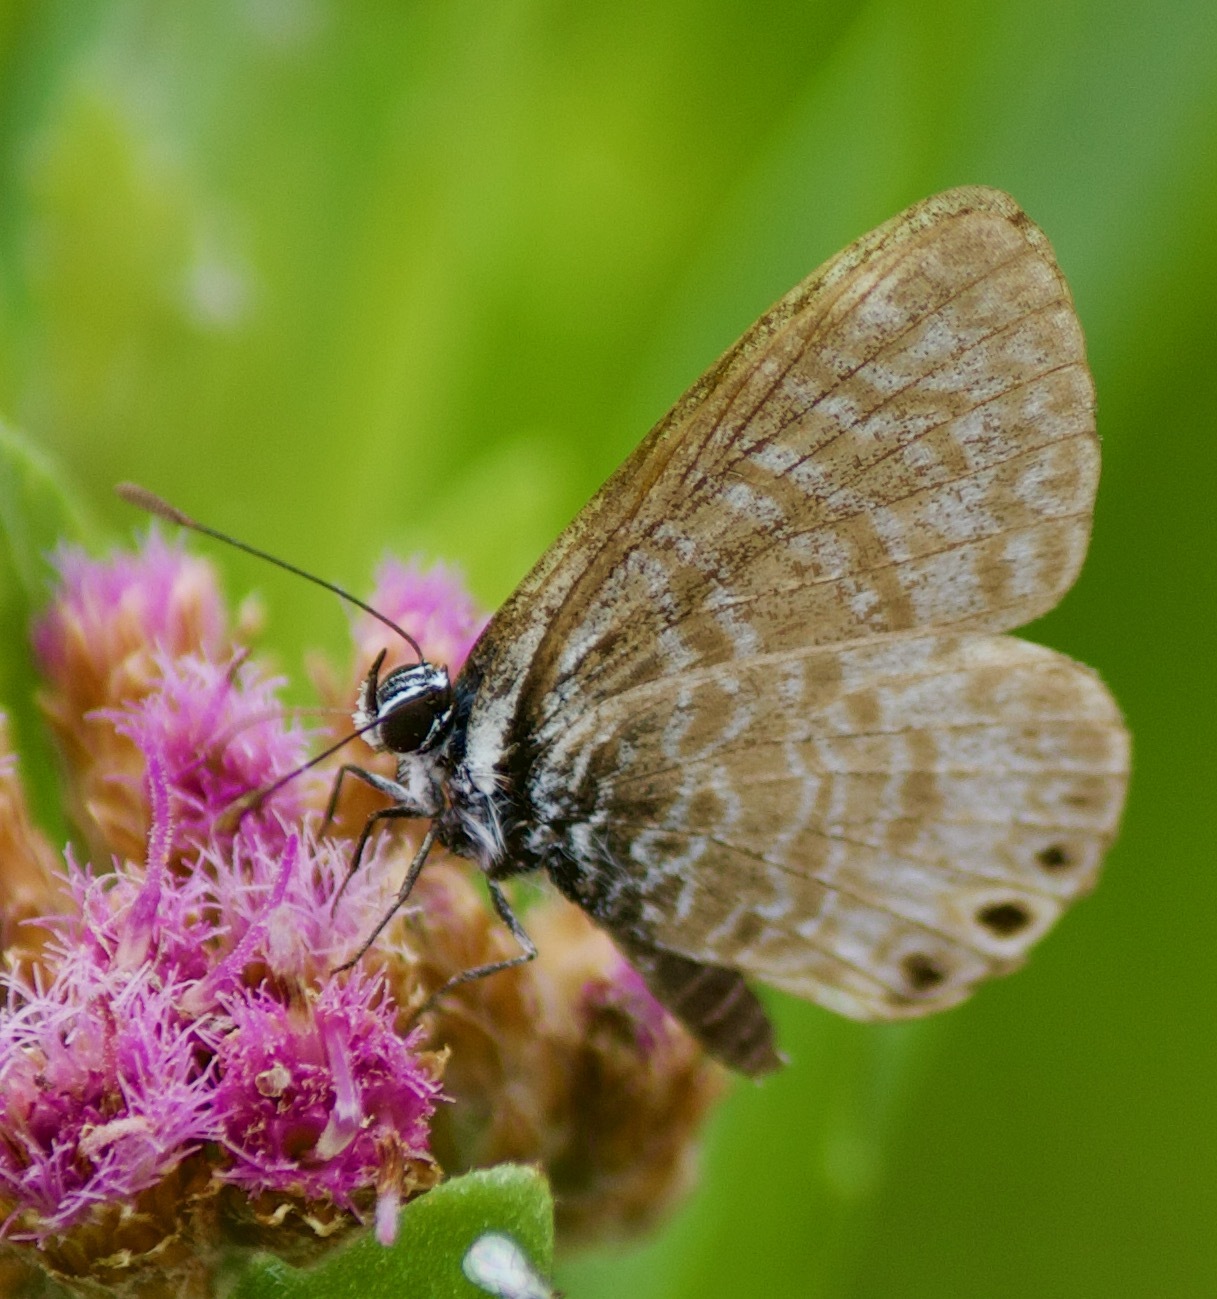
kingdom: Animalia
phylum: Arthropoda
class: Insecta
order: Lepidoptera
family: Lycaenidae
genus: Leptotes
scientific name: Leptotes trigemmatus
